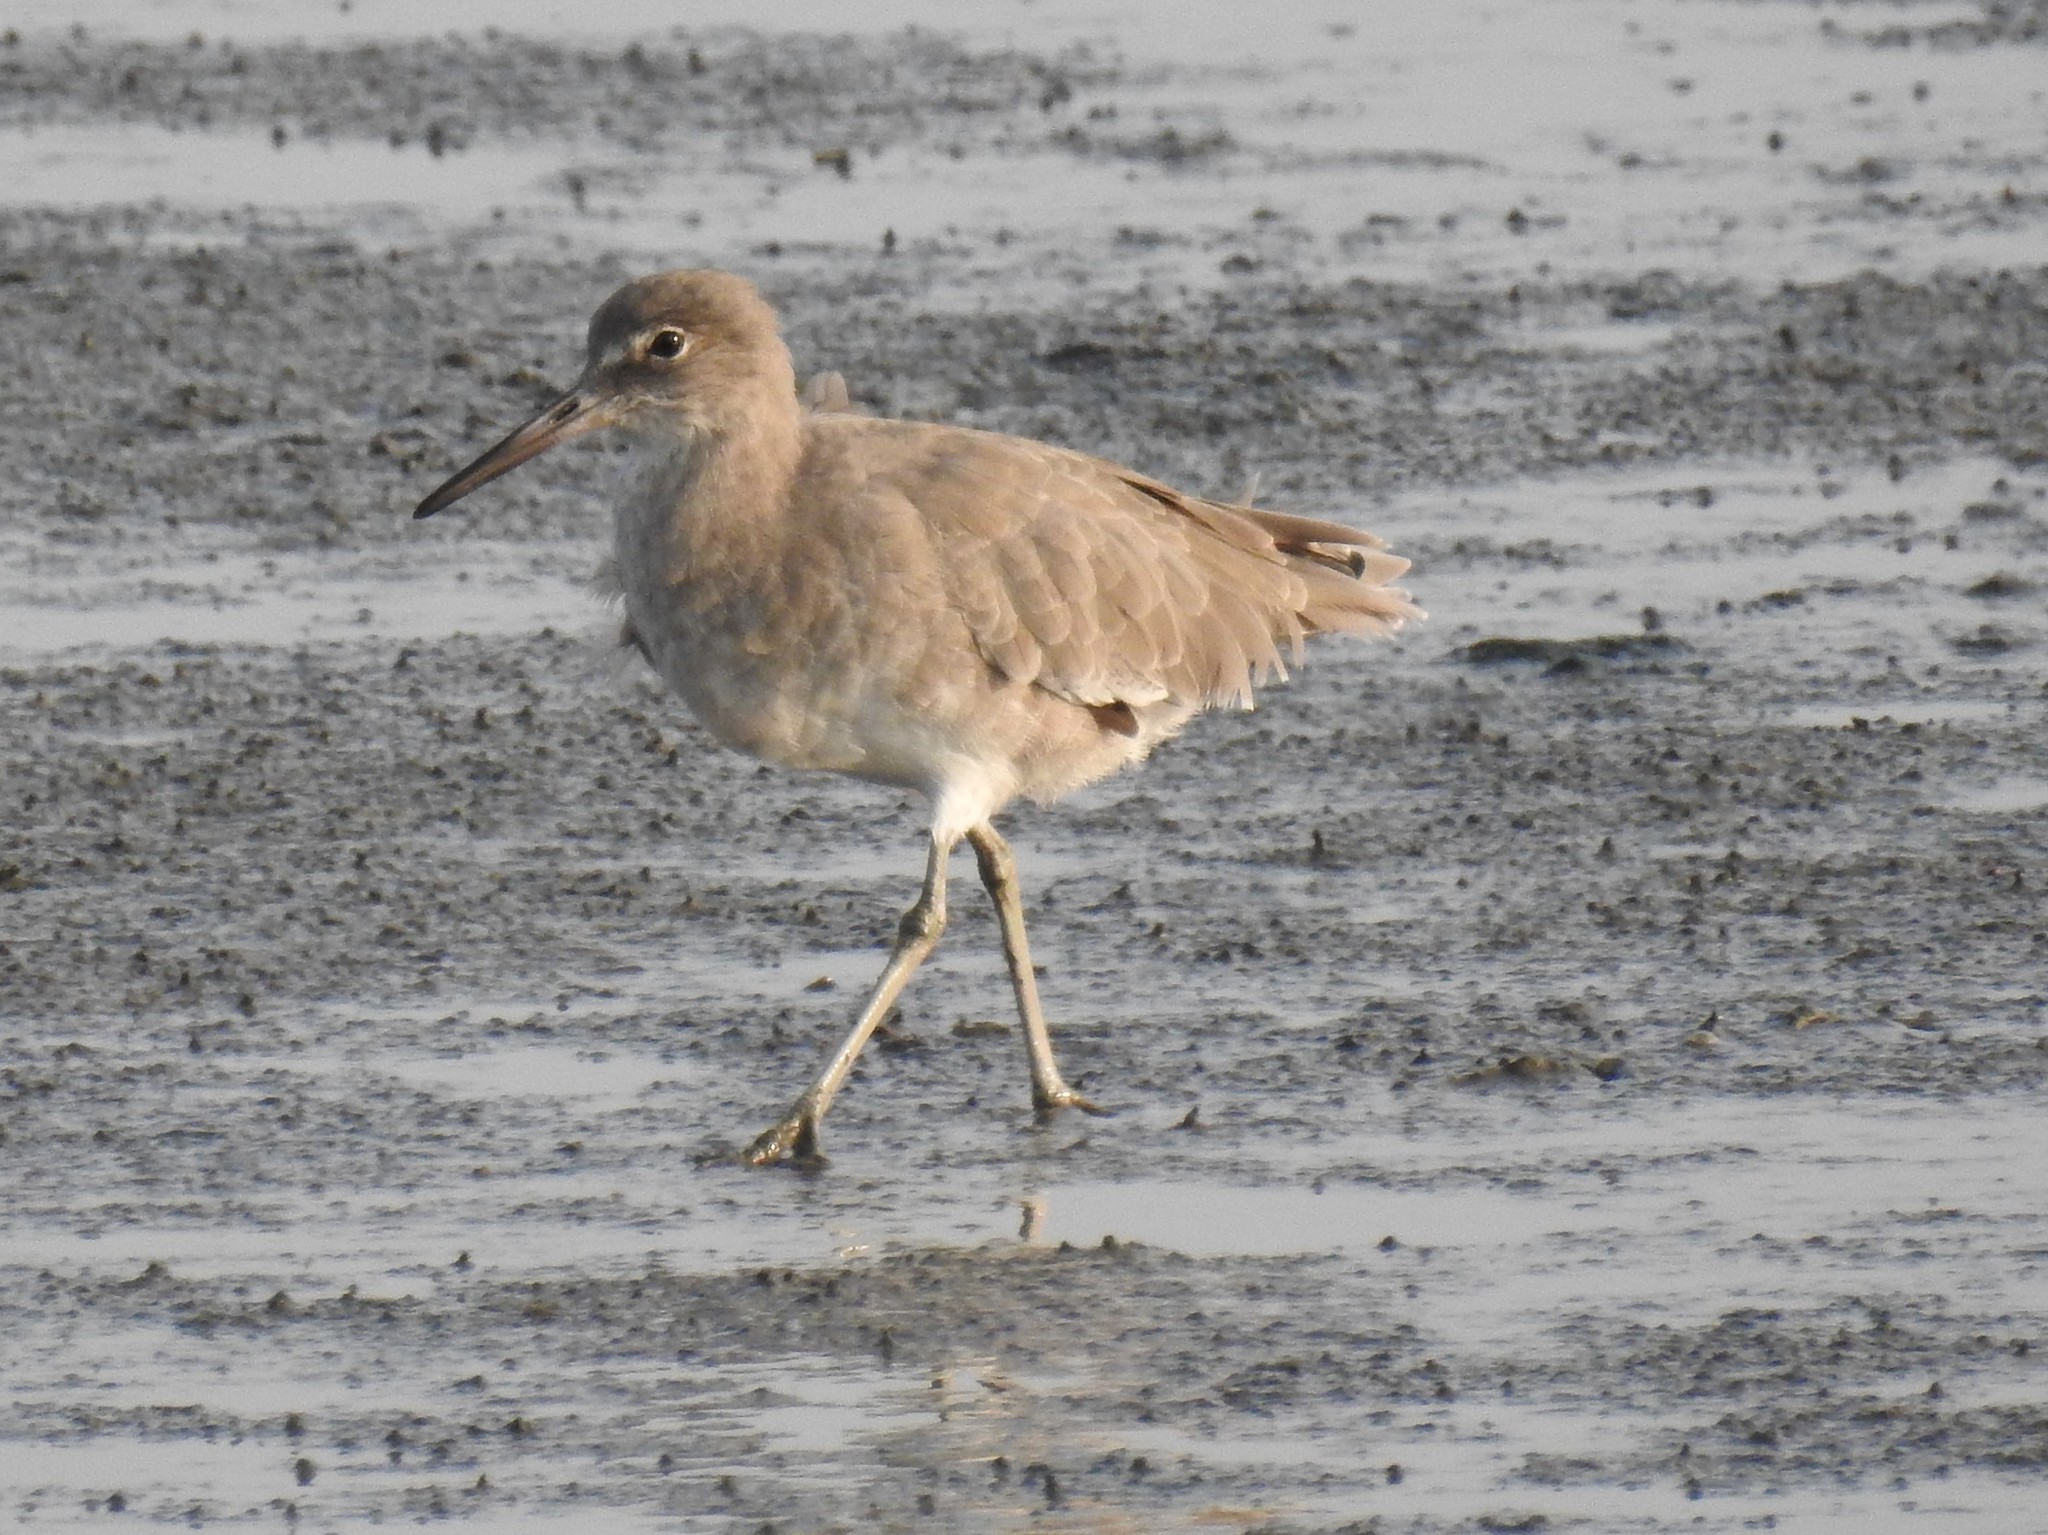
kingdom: Animalia
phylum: Chordata
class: Aves
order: Charadriiformes
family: Scolopacidae
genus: Tringa
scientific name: Tringa semipalmata
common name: Willet
